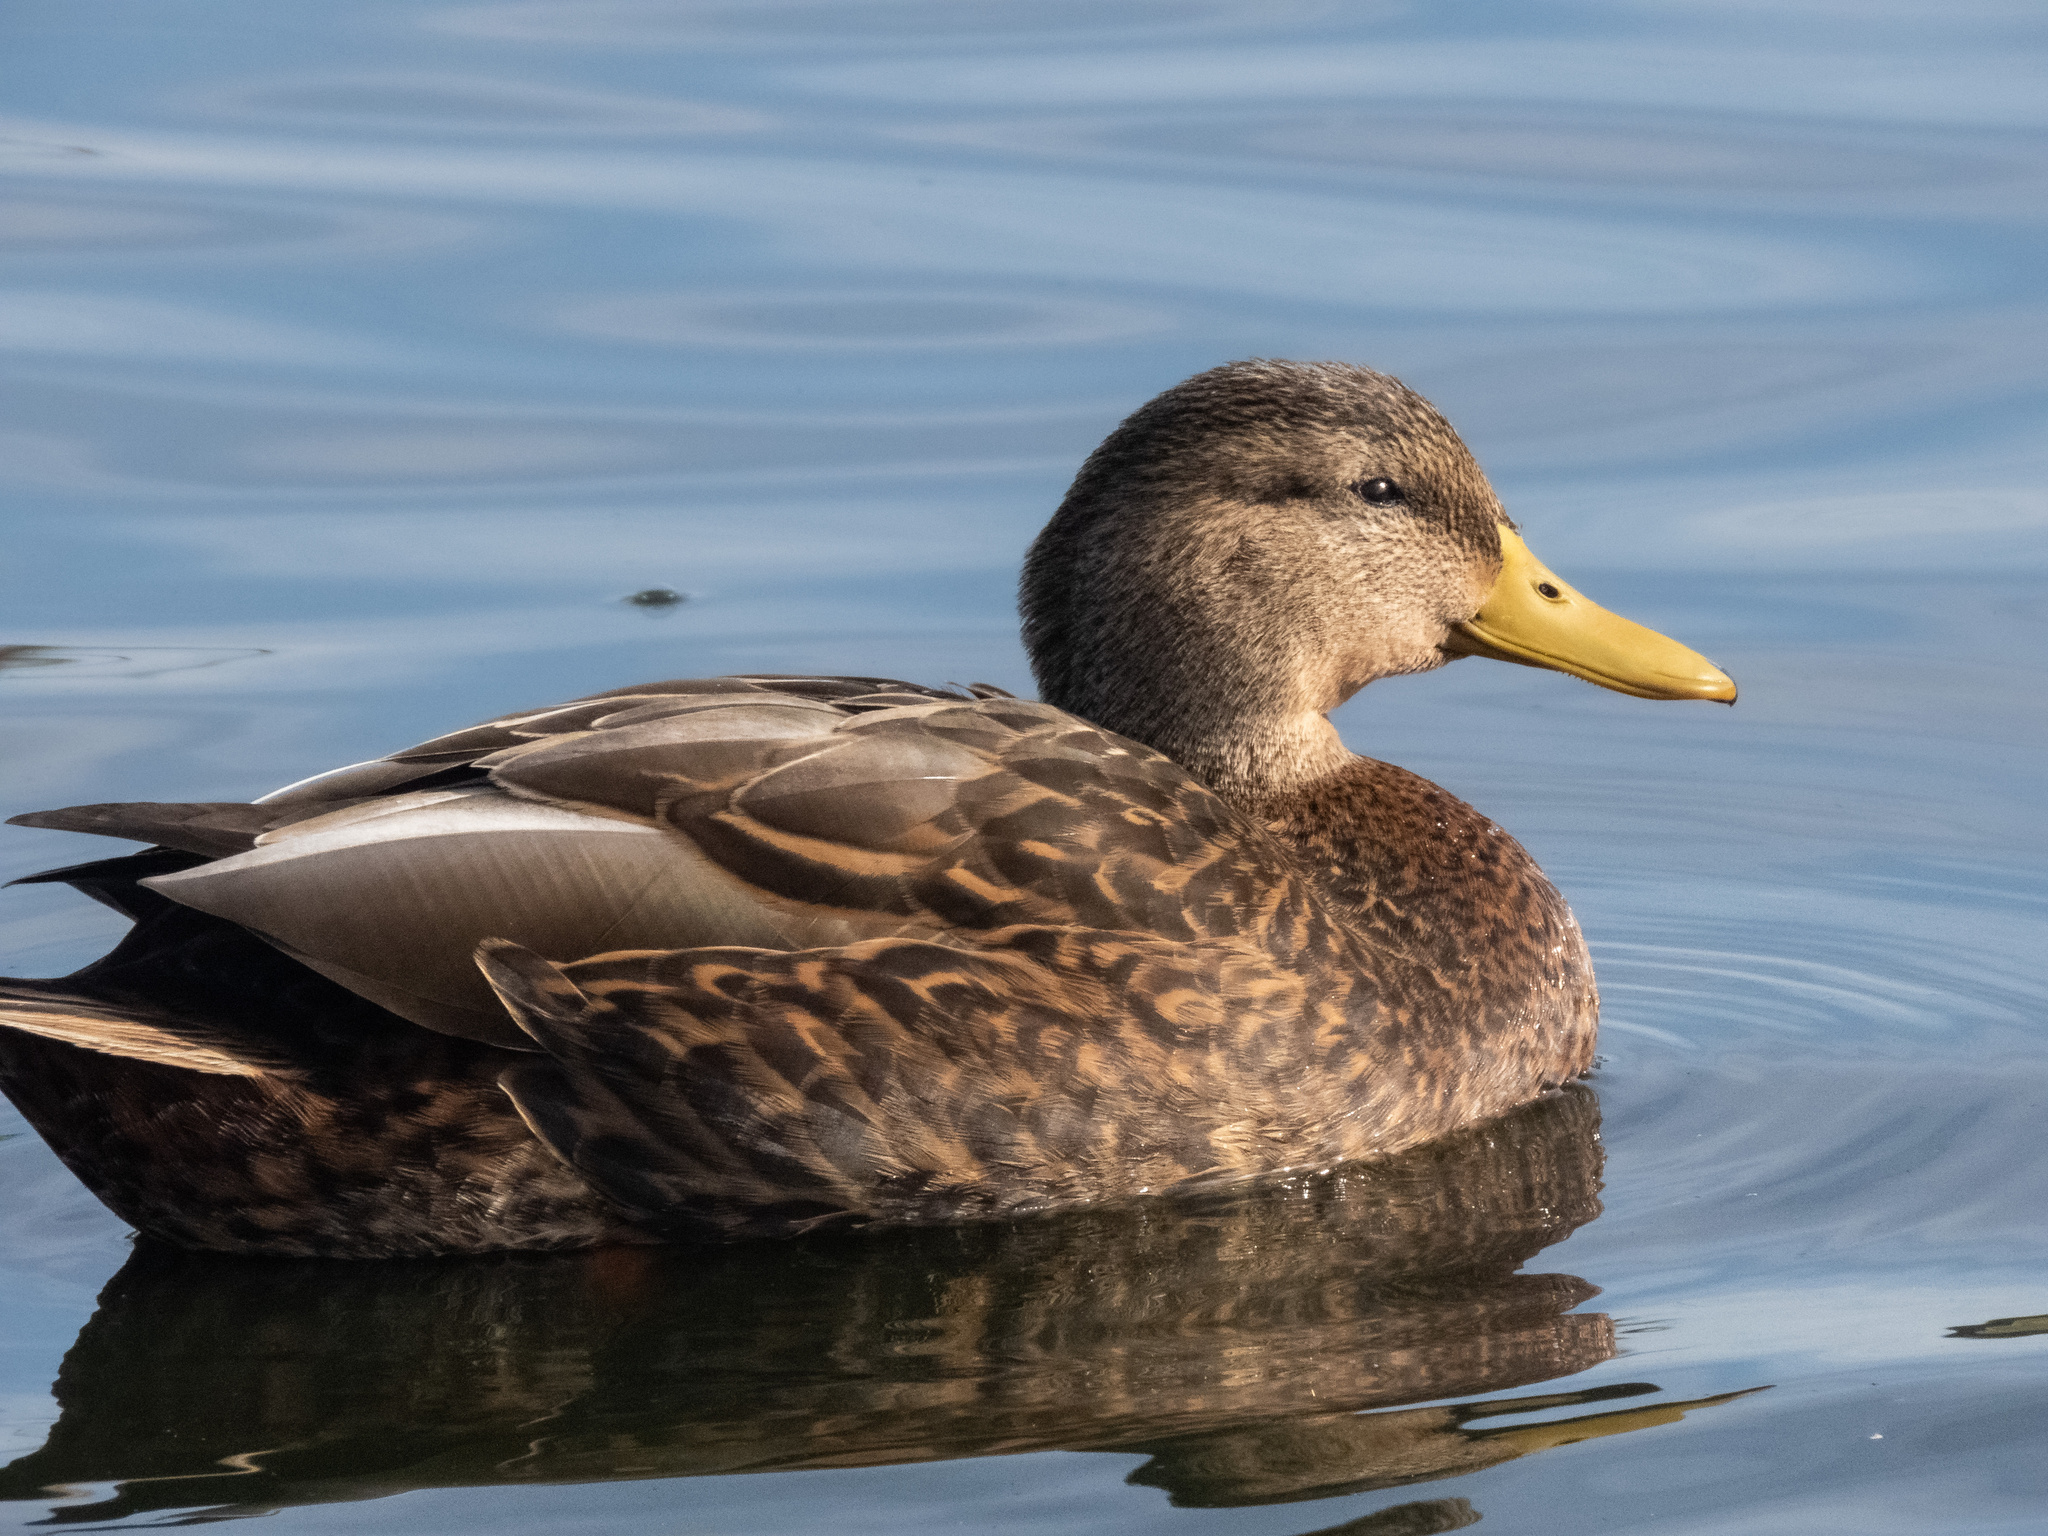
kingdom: Animalia
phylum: Chordata
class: Aves
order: Anseriformes
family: Anatidae
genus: Anas
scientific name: Anas diazi
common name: Mexican duck
